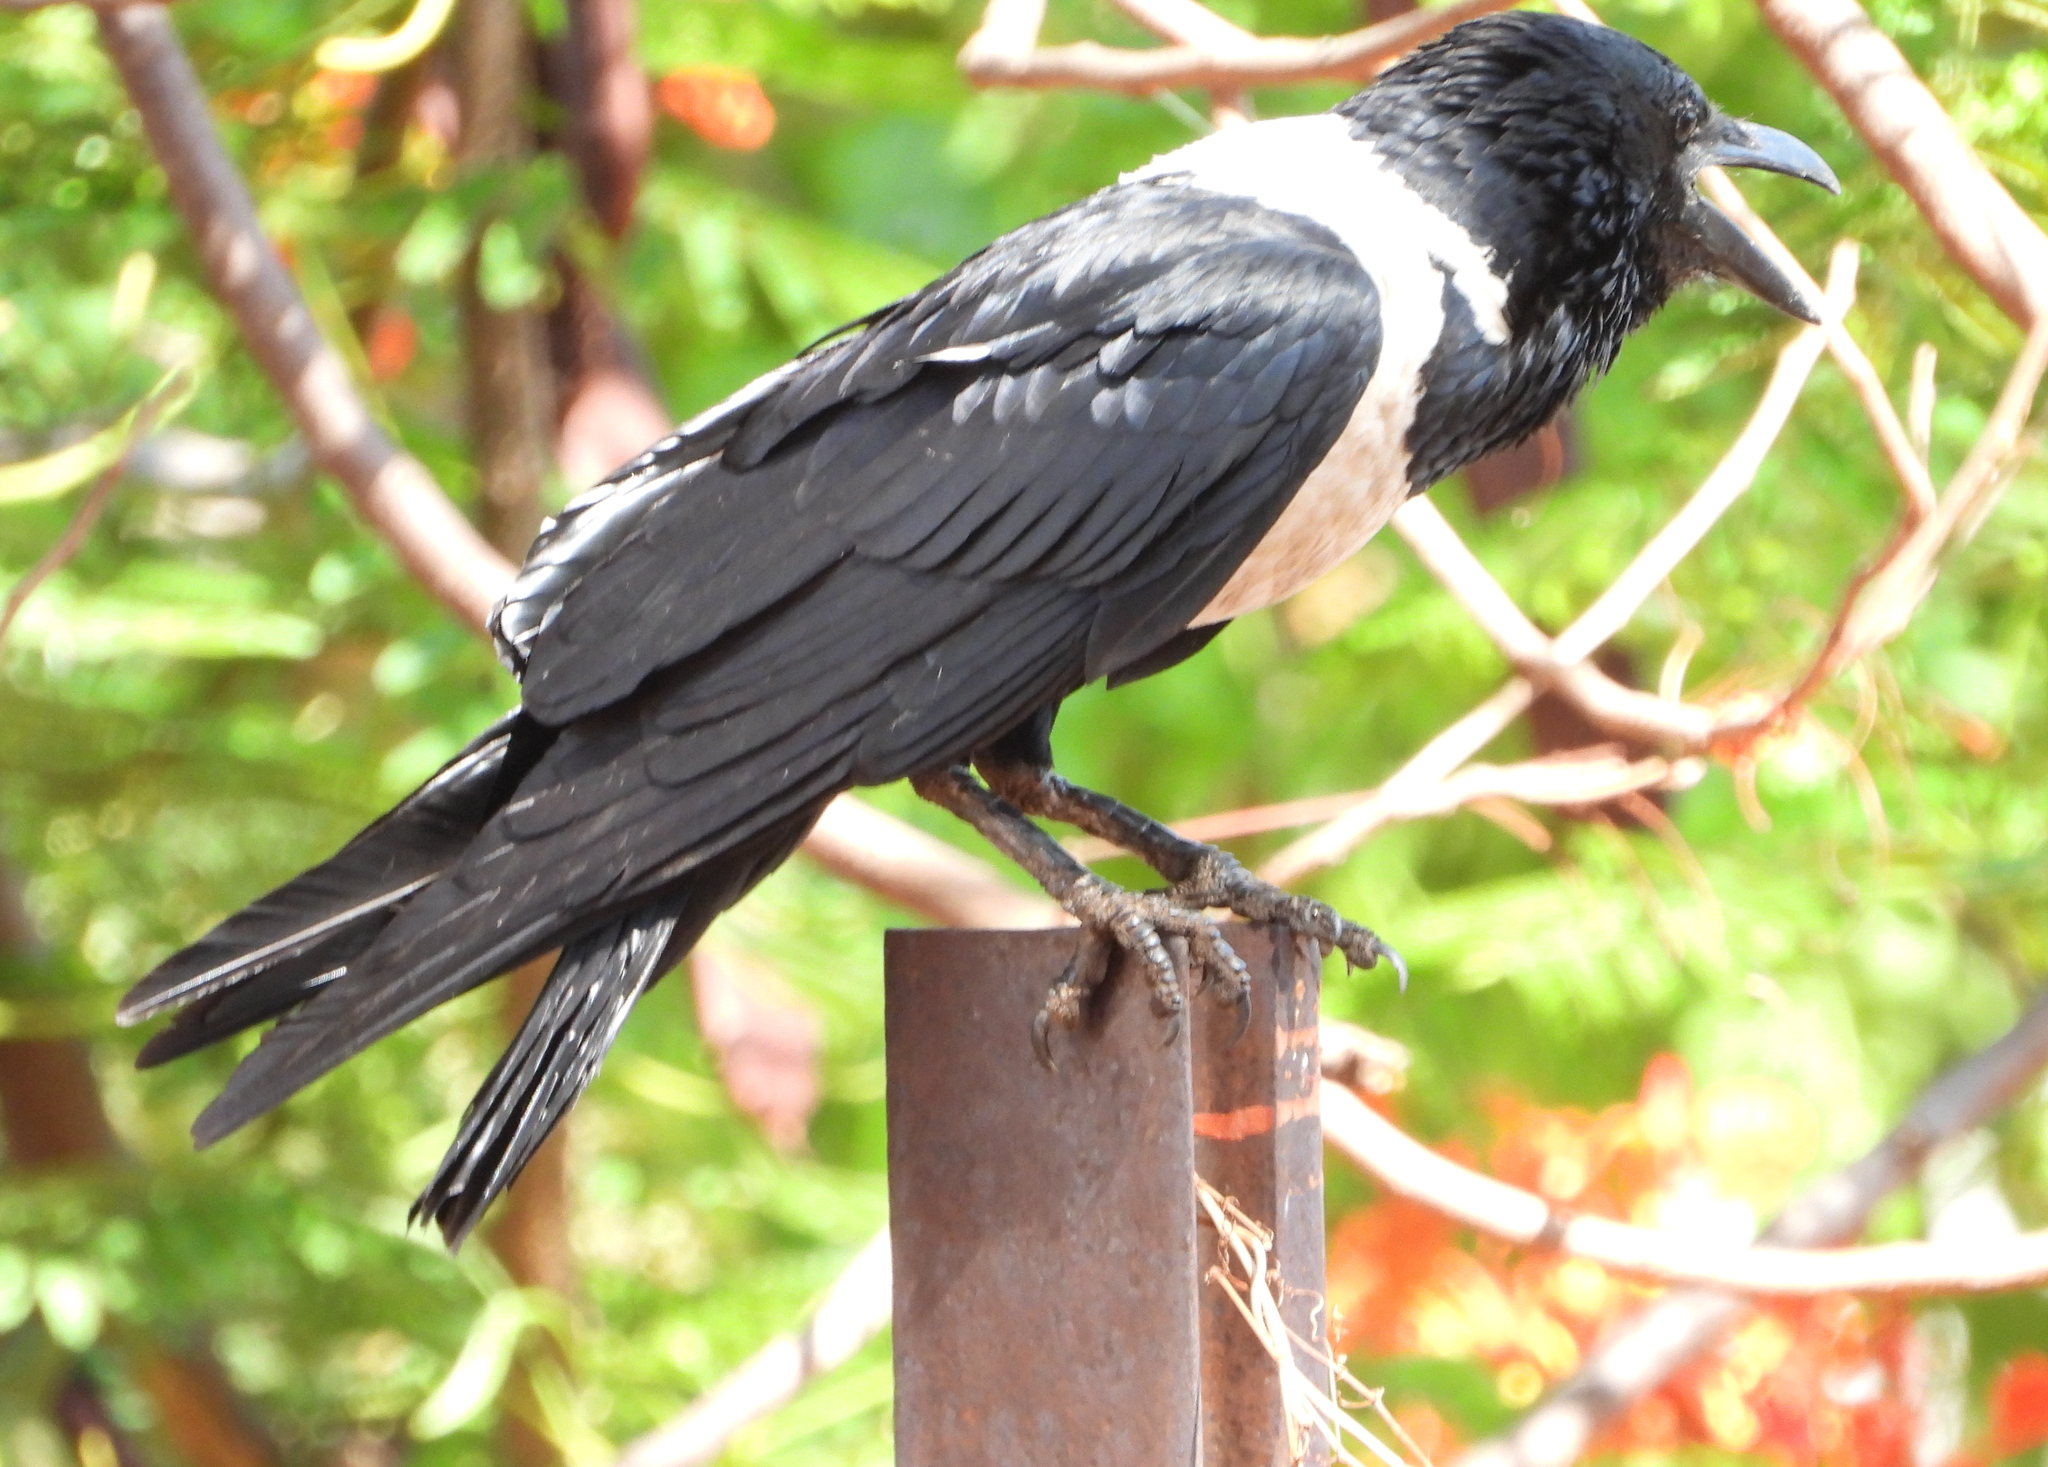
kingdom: Animalia
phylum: Chordata
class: Aves
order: Passeriformes
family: Corvidae
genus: Corvus
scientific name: Corvus albus
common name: Pied crow
